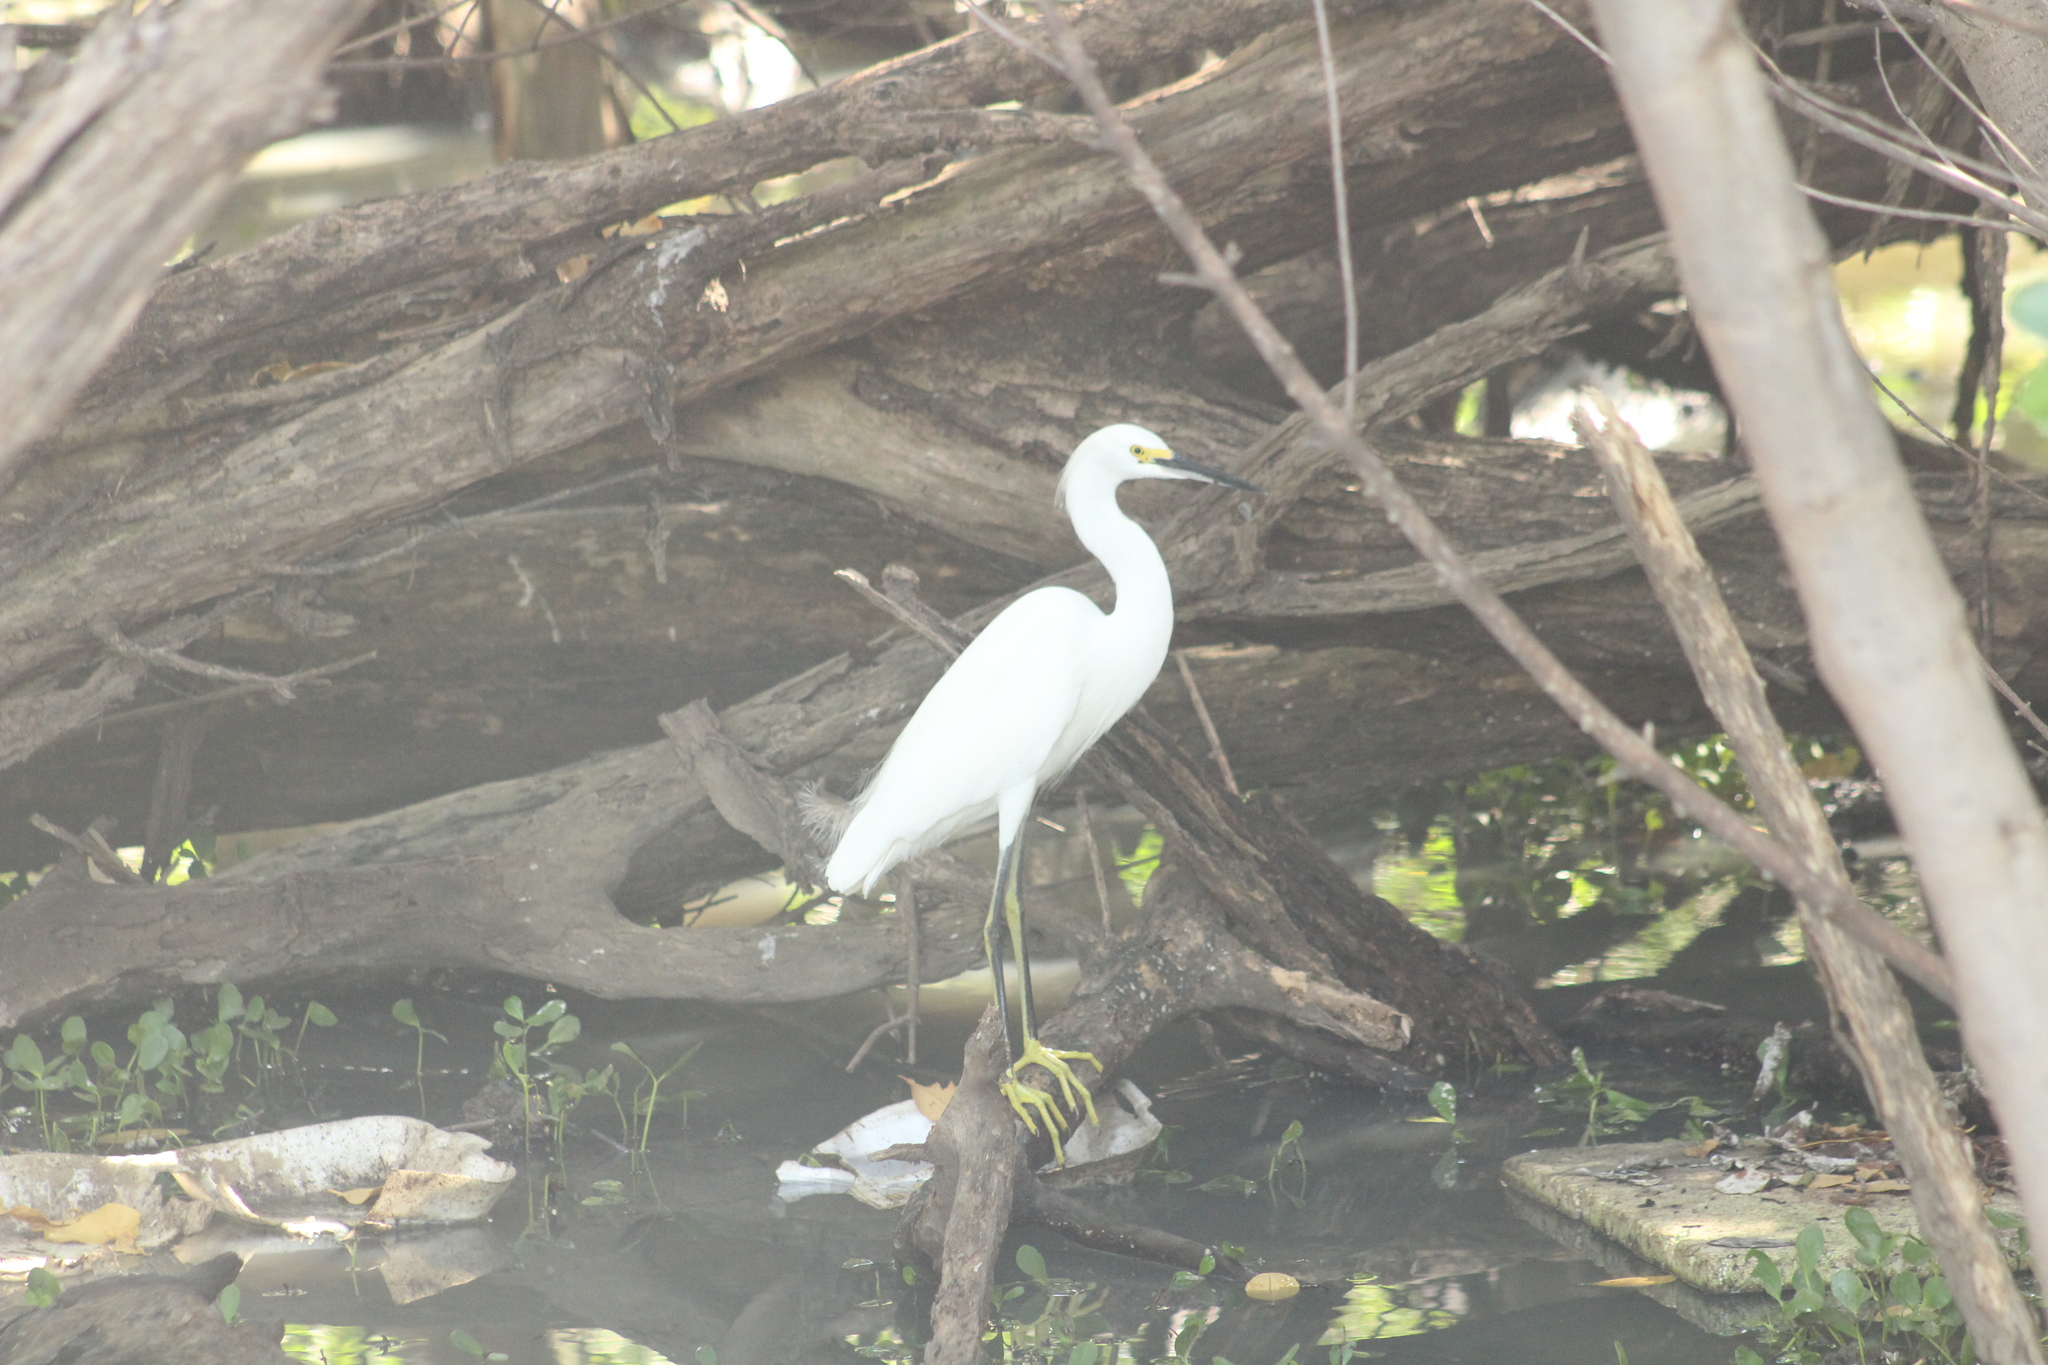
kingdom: Animalia
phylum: Chordata
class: Aves
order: Pelecaniformes
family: Ardeidae
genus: Egretta
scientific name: Egretta thula
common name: Snowy egret
